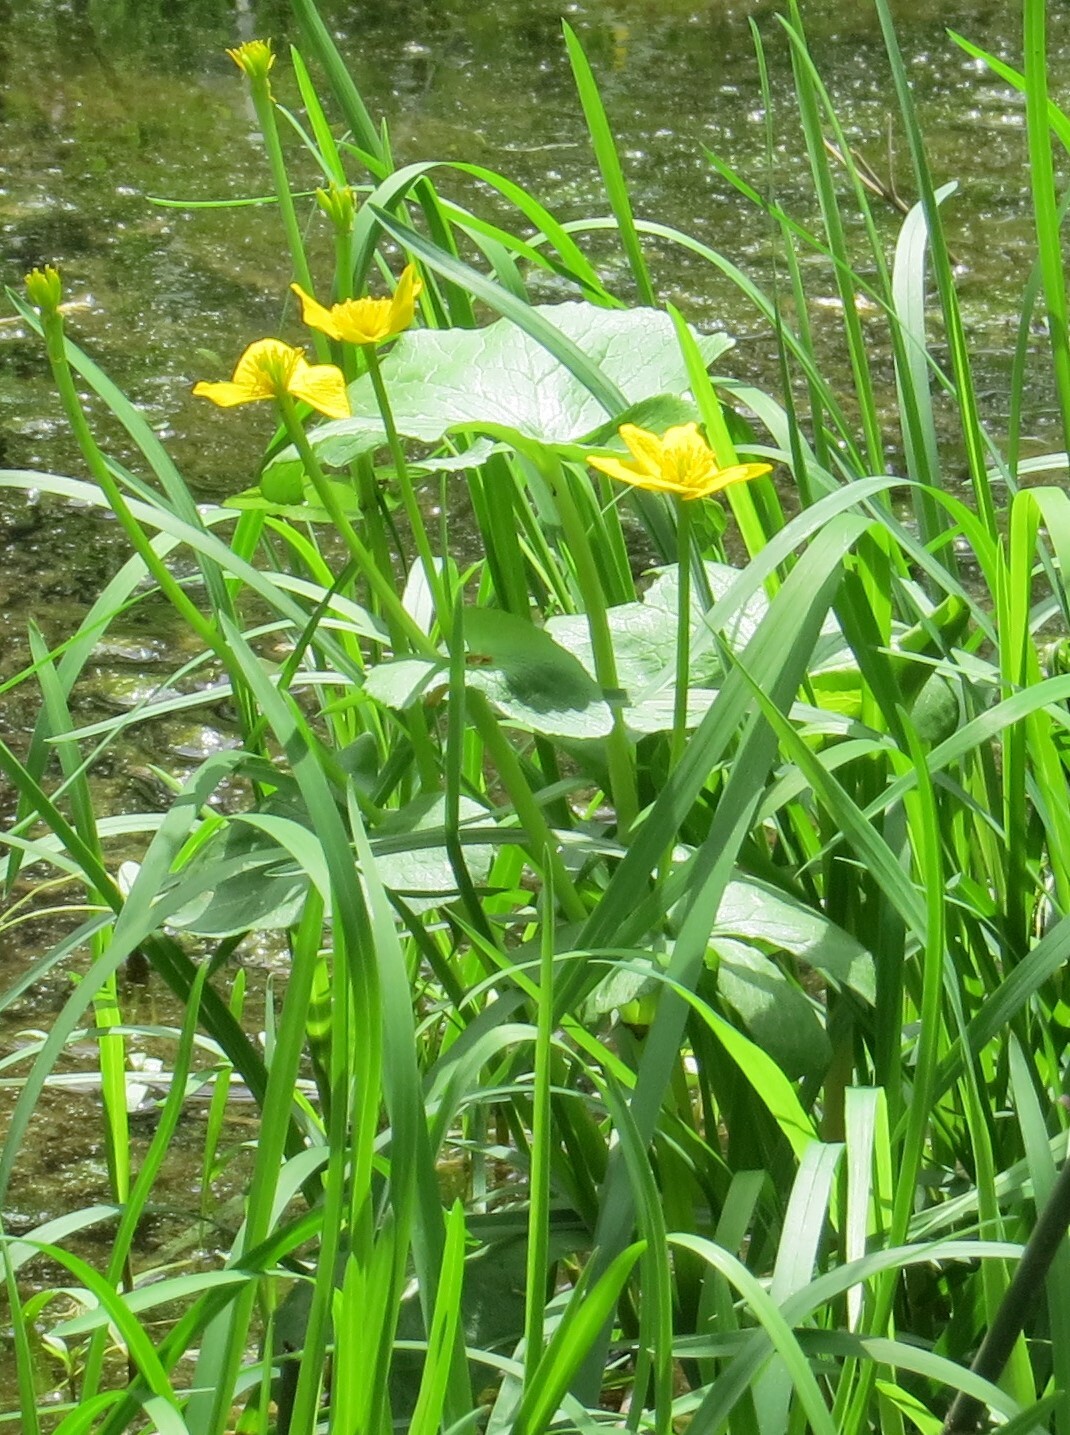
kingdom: Plantae
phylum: Tracheophyta
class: Magnoliopsida
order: Ranunculales
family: Ranunculaceae
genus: Caltha
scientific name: Caltha palustris
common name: Marsh marigold
